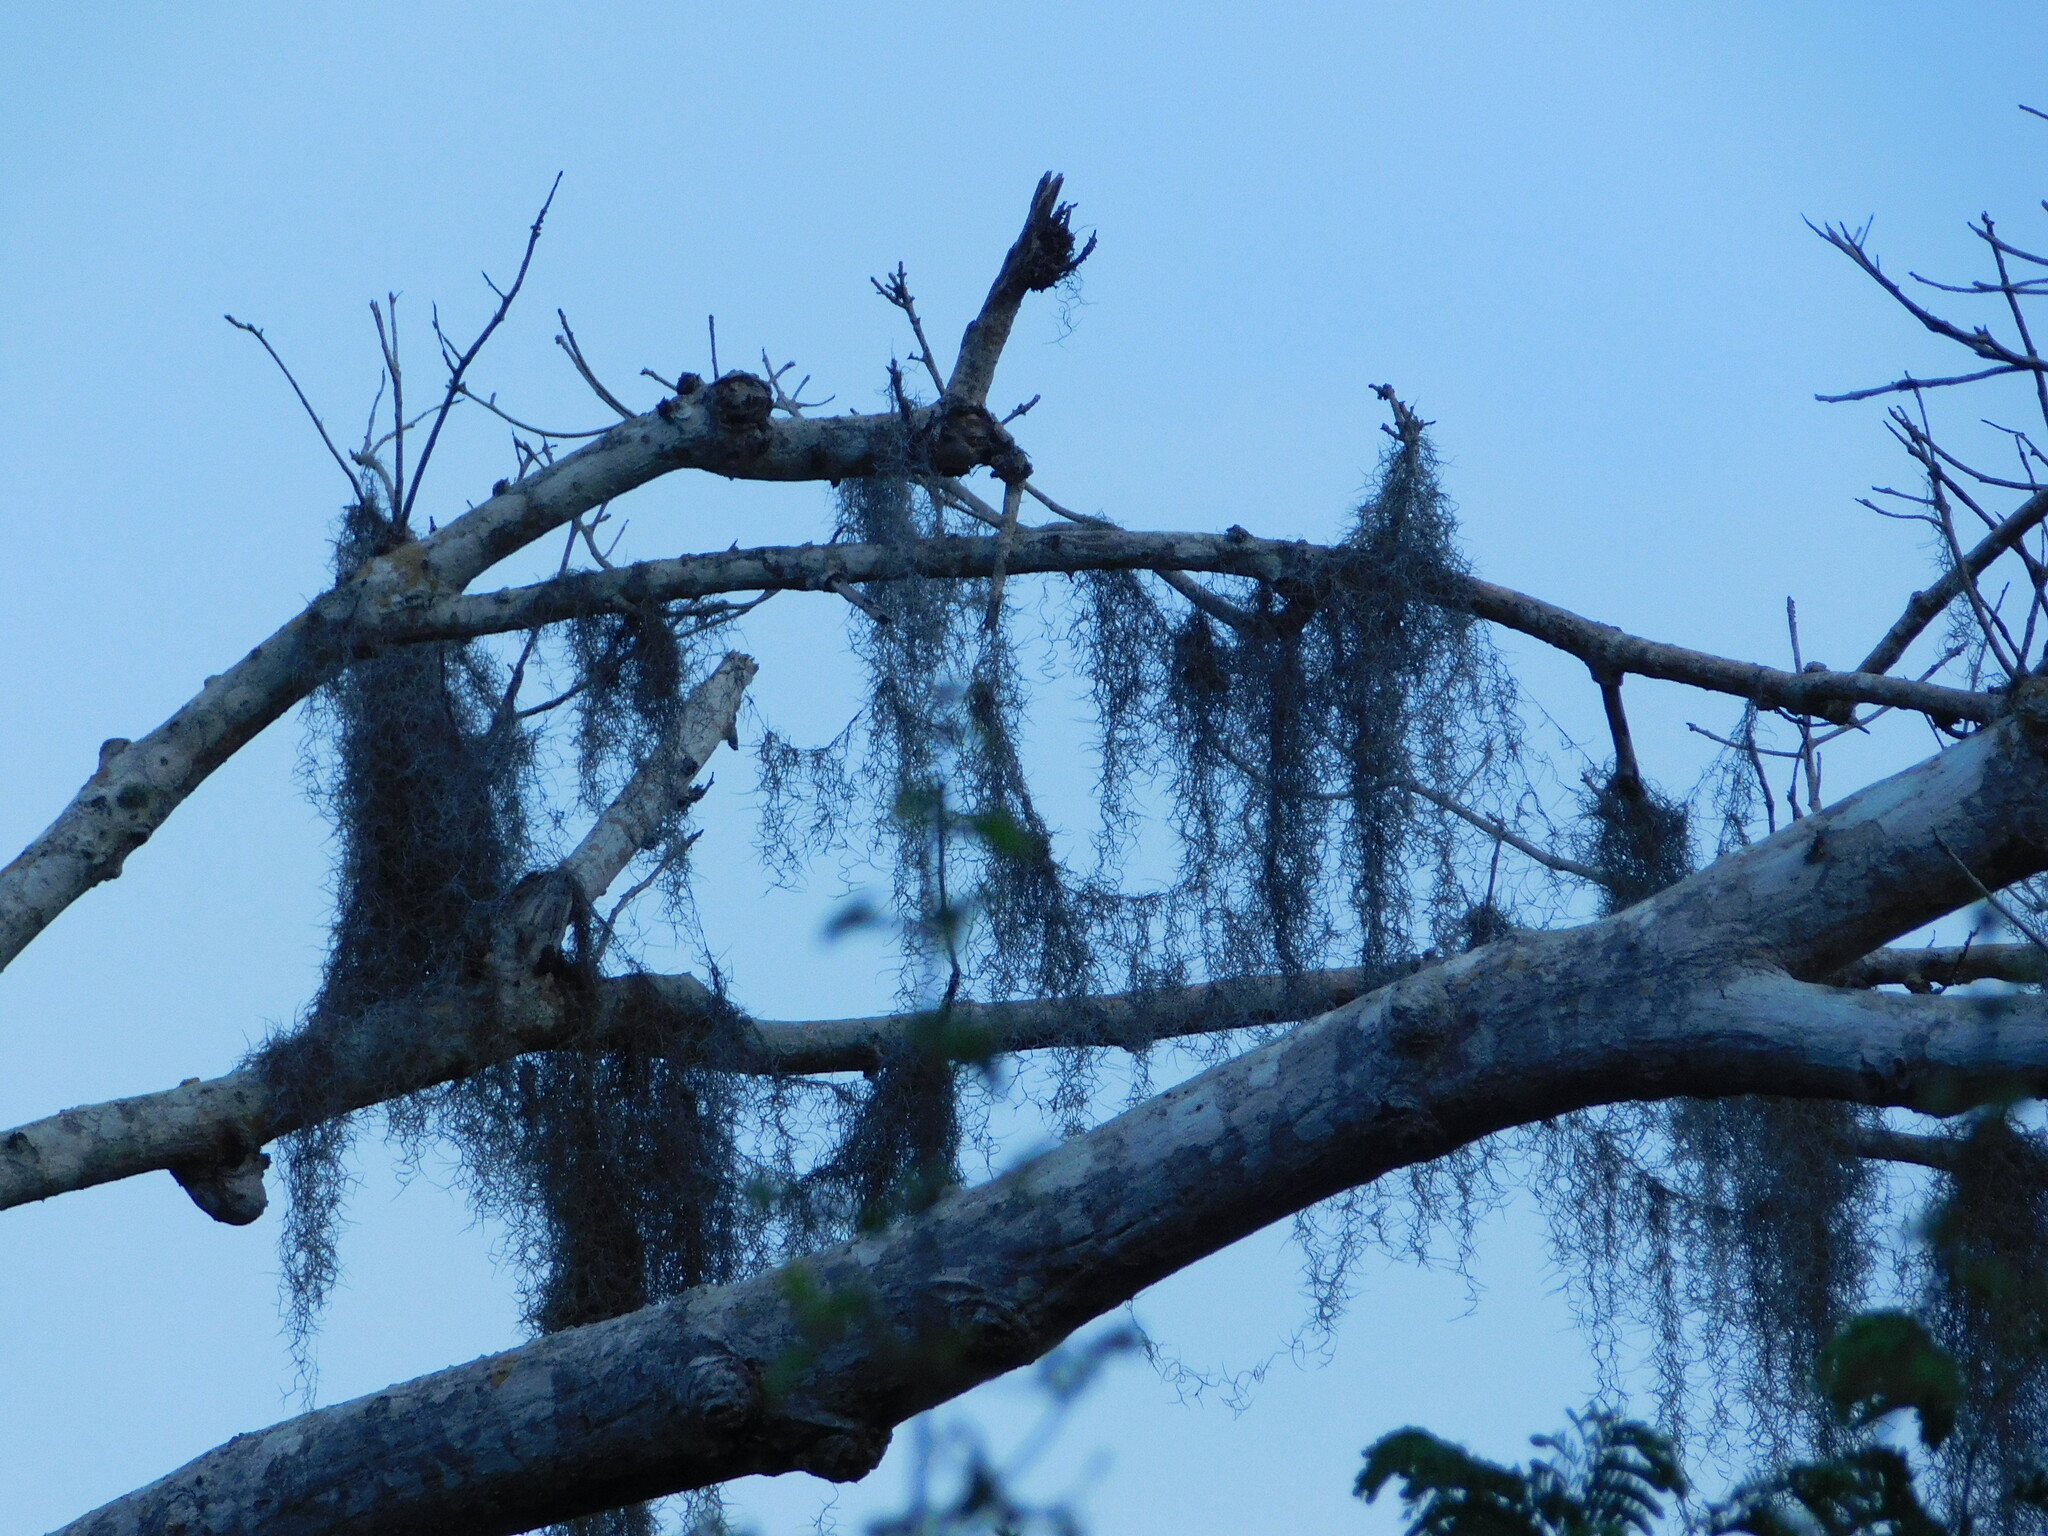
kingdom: Plantae
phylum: Tracheophyta
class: Liliopsida
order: Poales
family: Bromeliaceae
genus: Tillandsia
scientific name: Tillandsia usneoides
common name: Spanish moss
